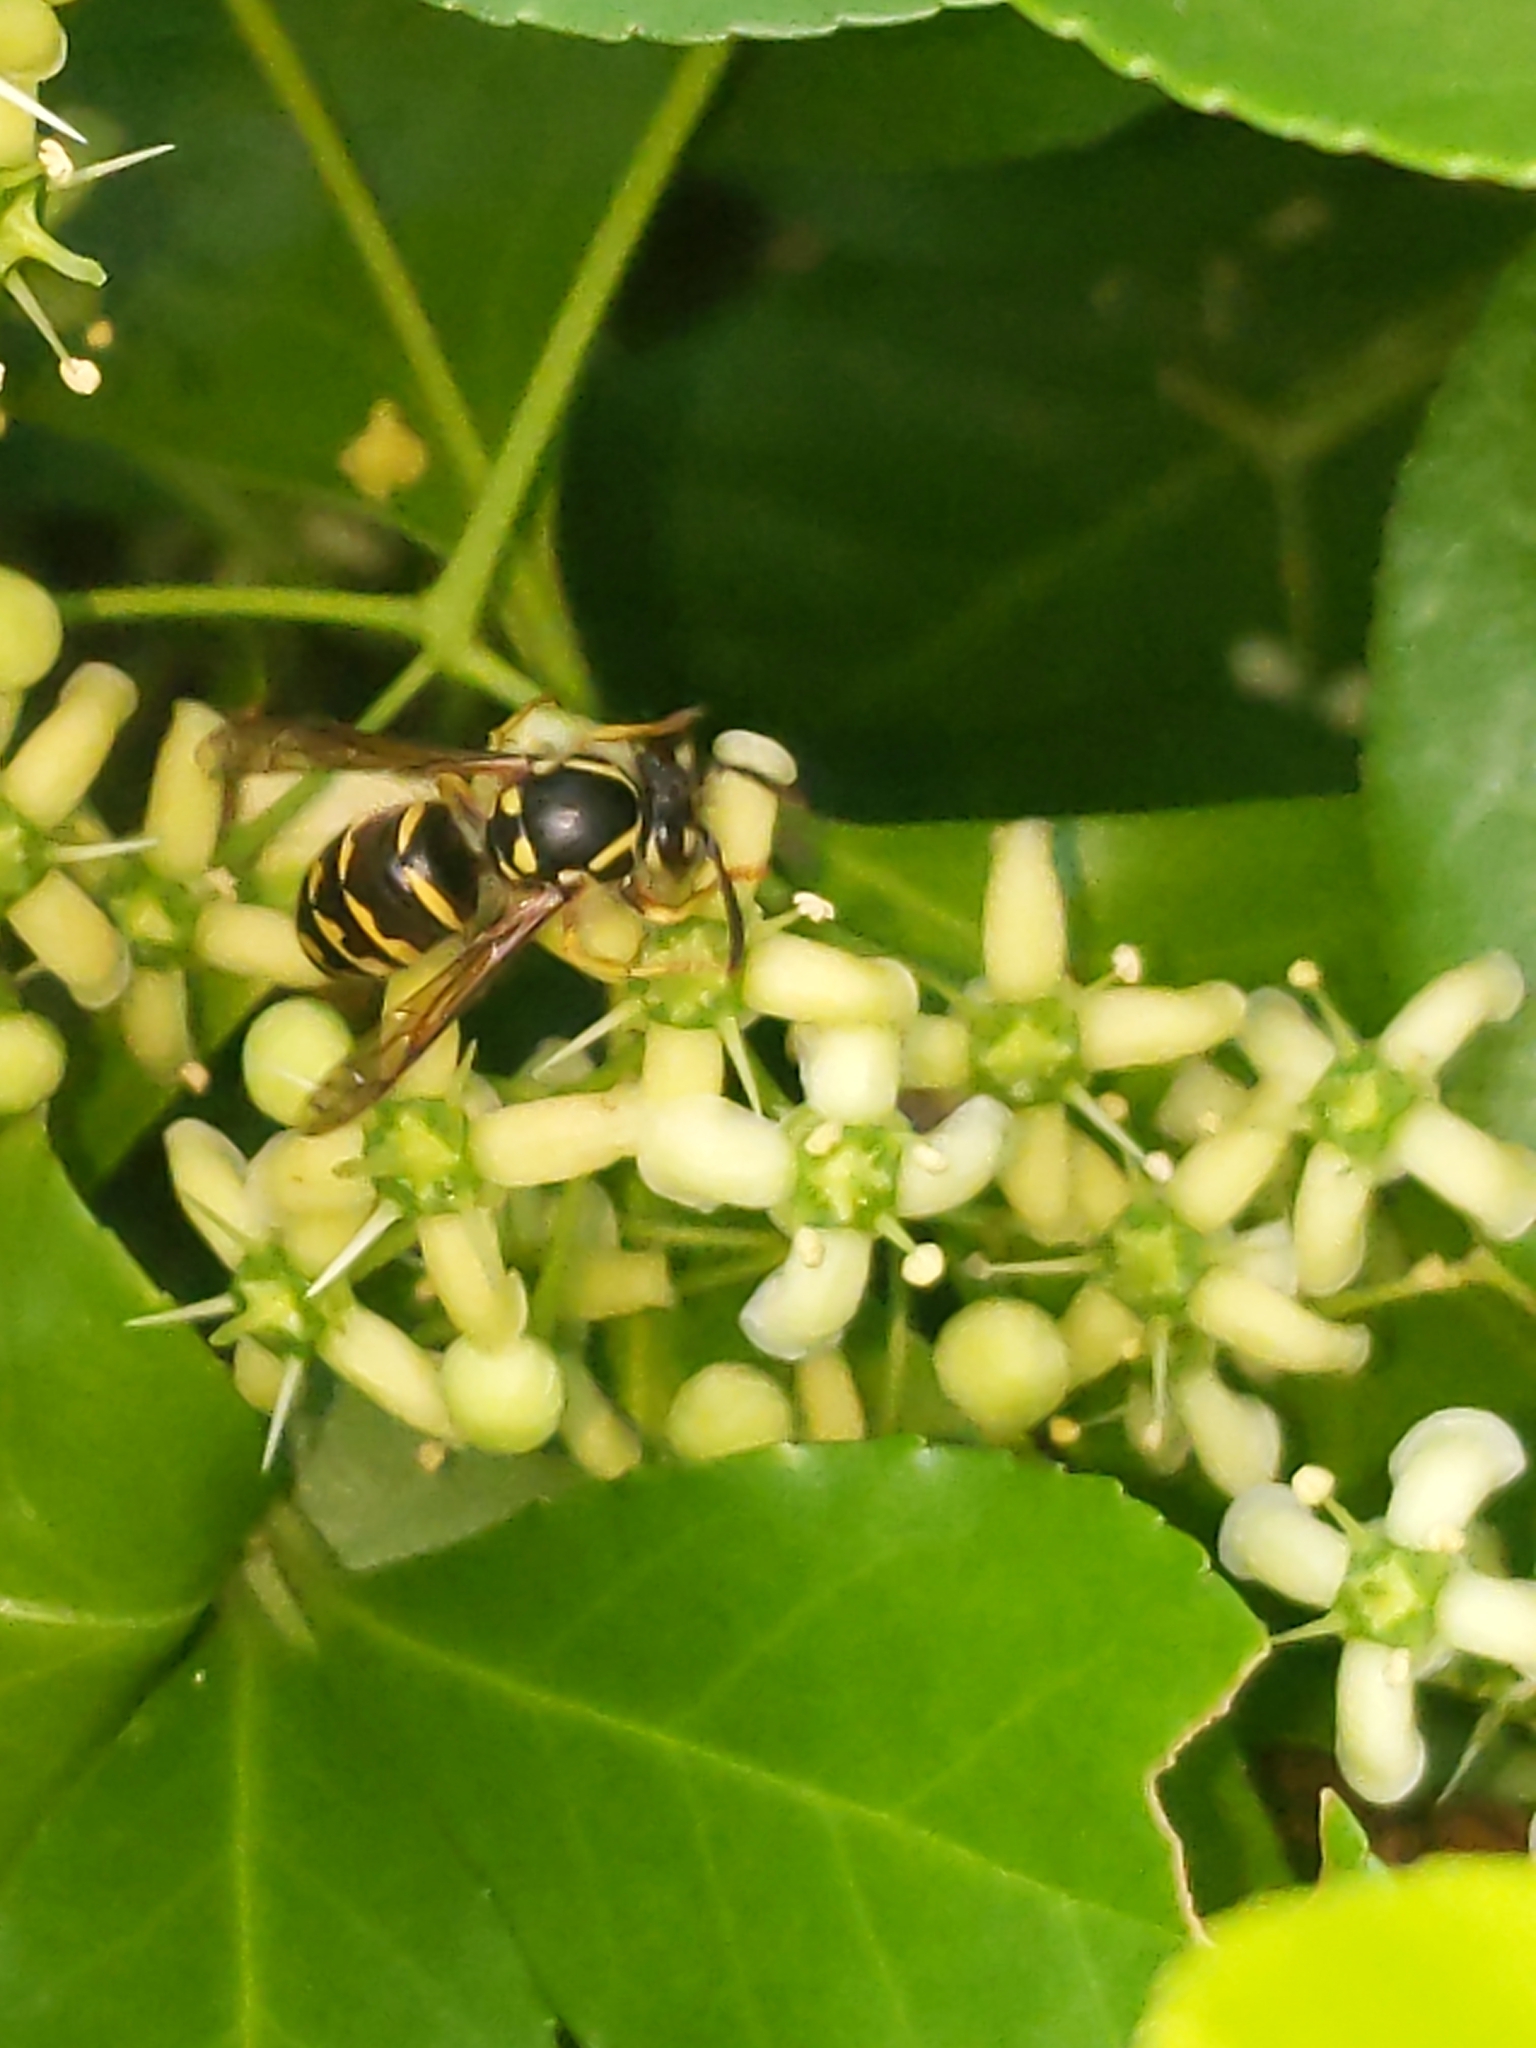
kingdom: Animalia
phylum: Arthropoda
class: Insecta
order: Hymenoptera
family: Vespidae
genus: Dolichovespula
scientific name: Dolichovespula arenaria
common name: Aerial yellowjacket
